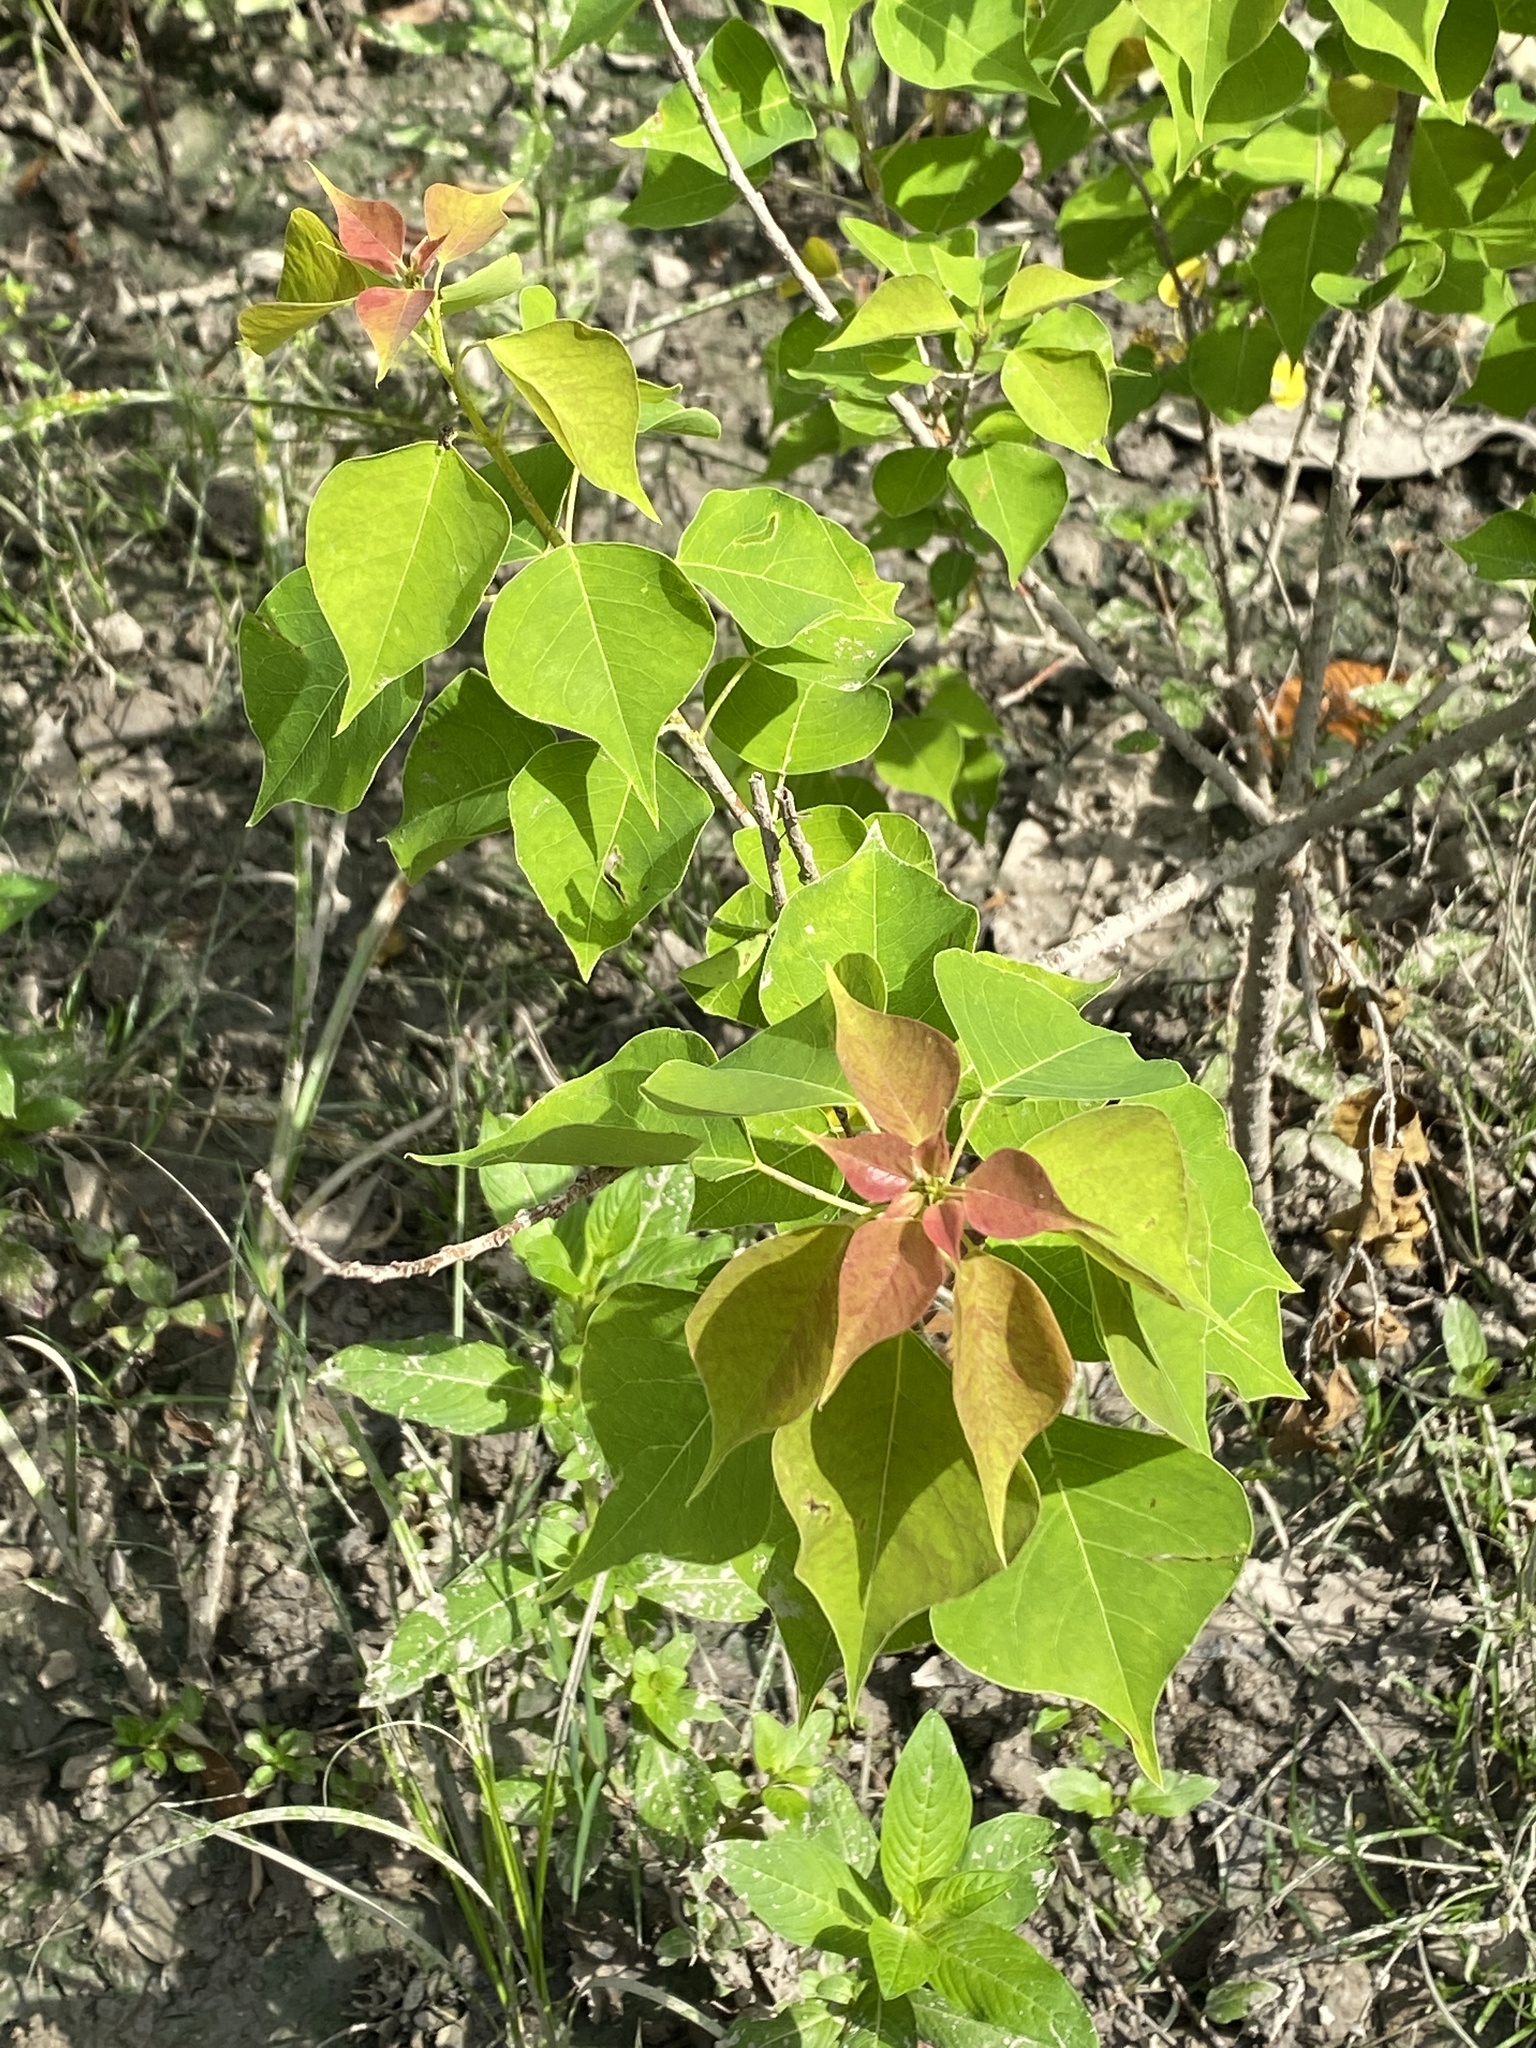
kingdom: Plantae
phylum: Tracheophyta
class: Magnoliopsida
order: Malpighiales
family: Euphorbiaceae
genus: Triadica
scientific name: Triadica sebifera
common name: Chinese tallow
